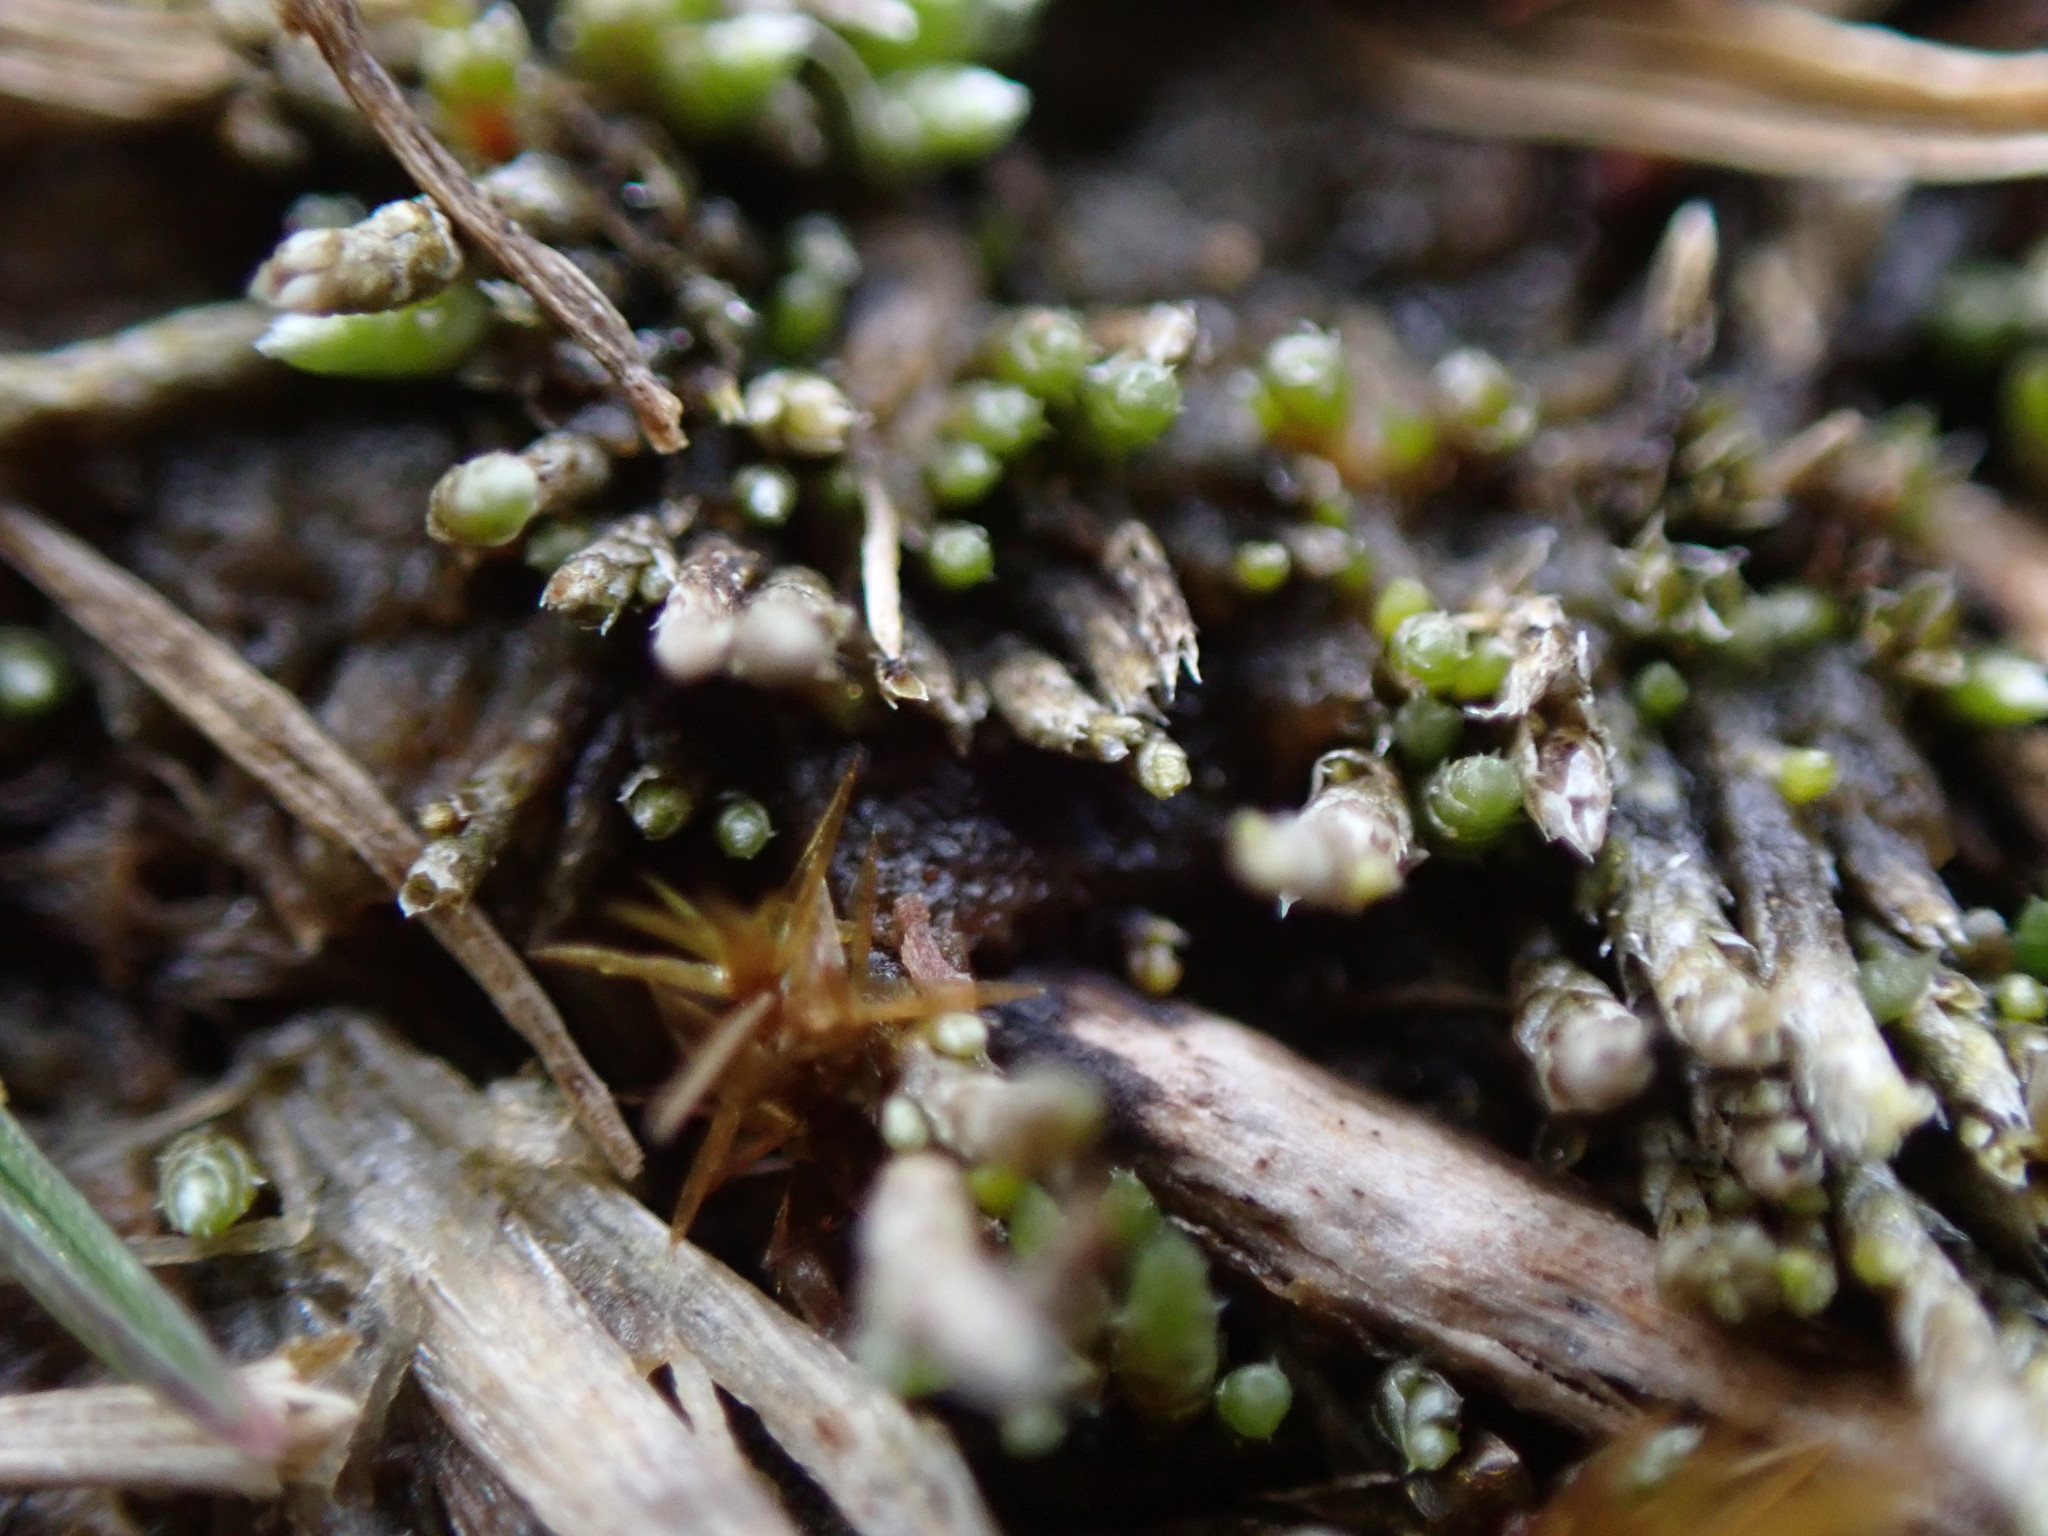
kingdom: Plantae
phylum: Bryophyta
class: Bryopsida
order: Bryales
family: Bryaceae
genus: Bryum
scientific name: Bryum argenteum
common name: Silver-moss
